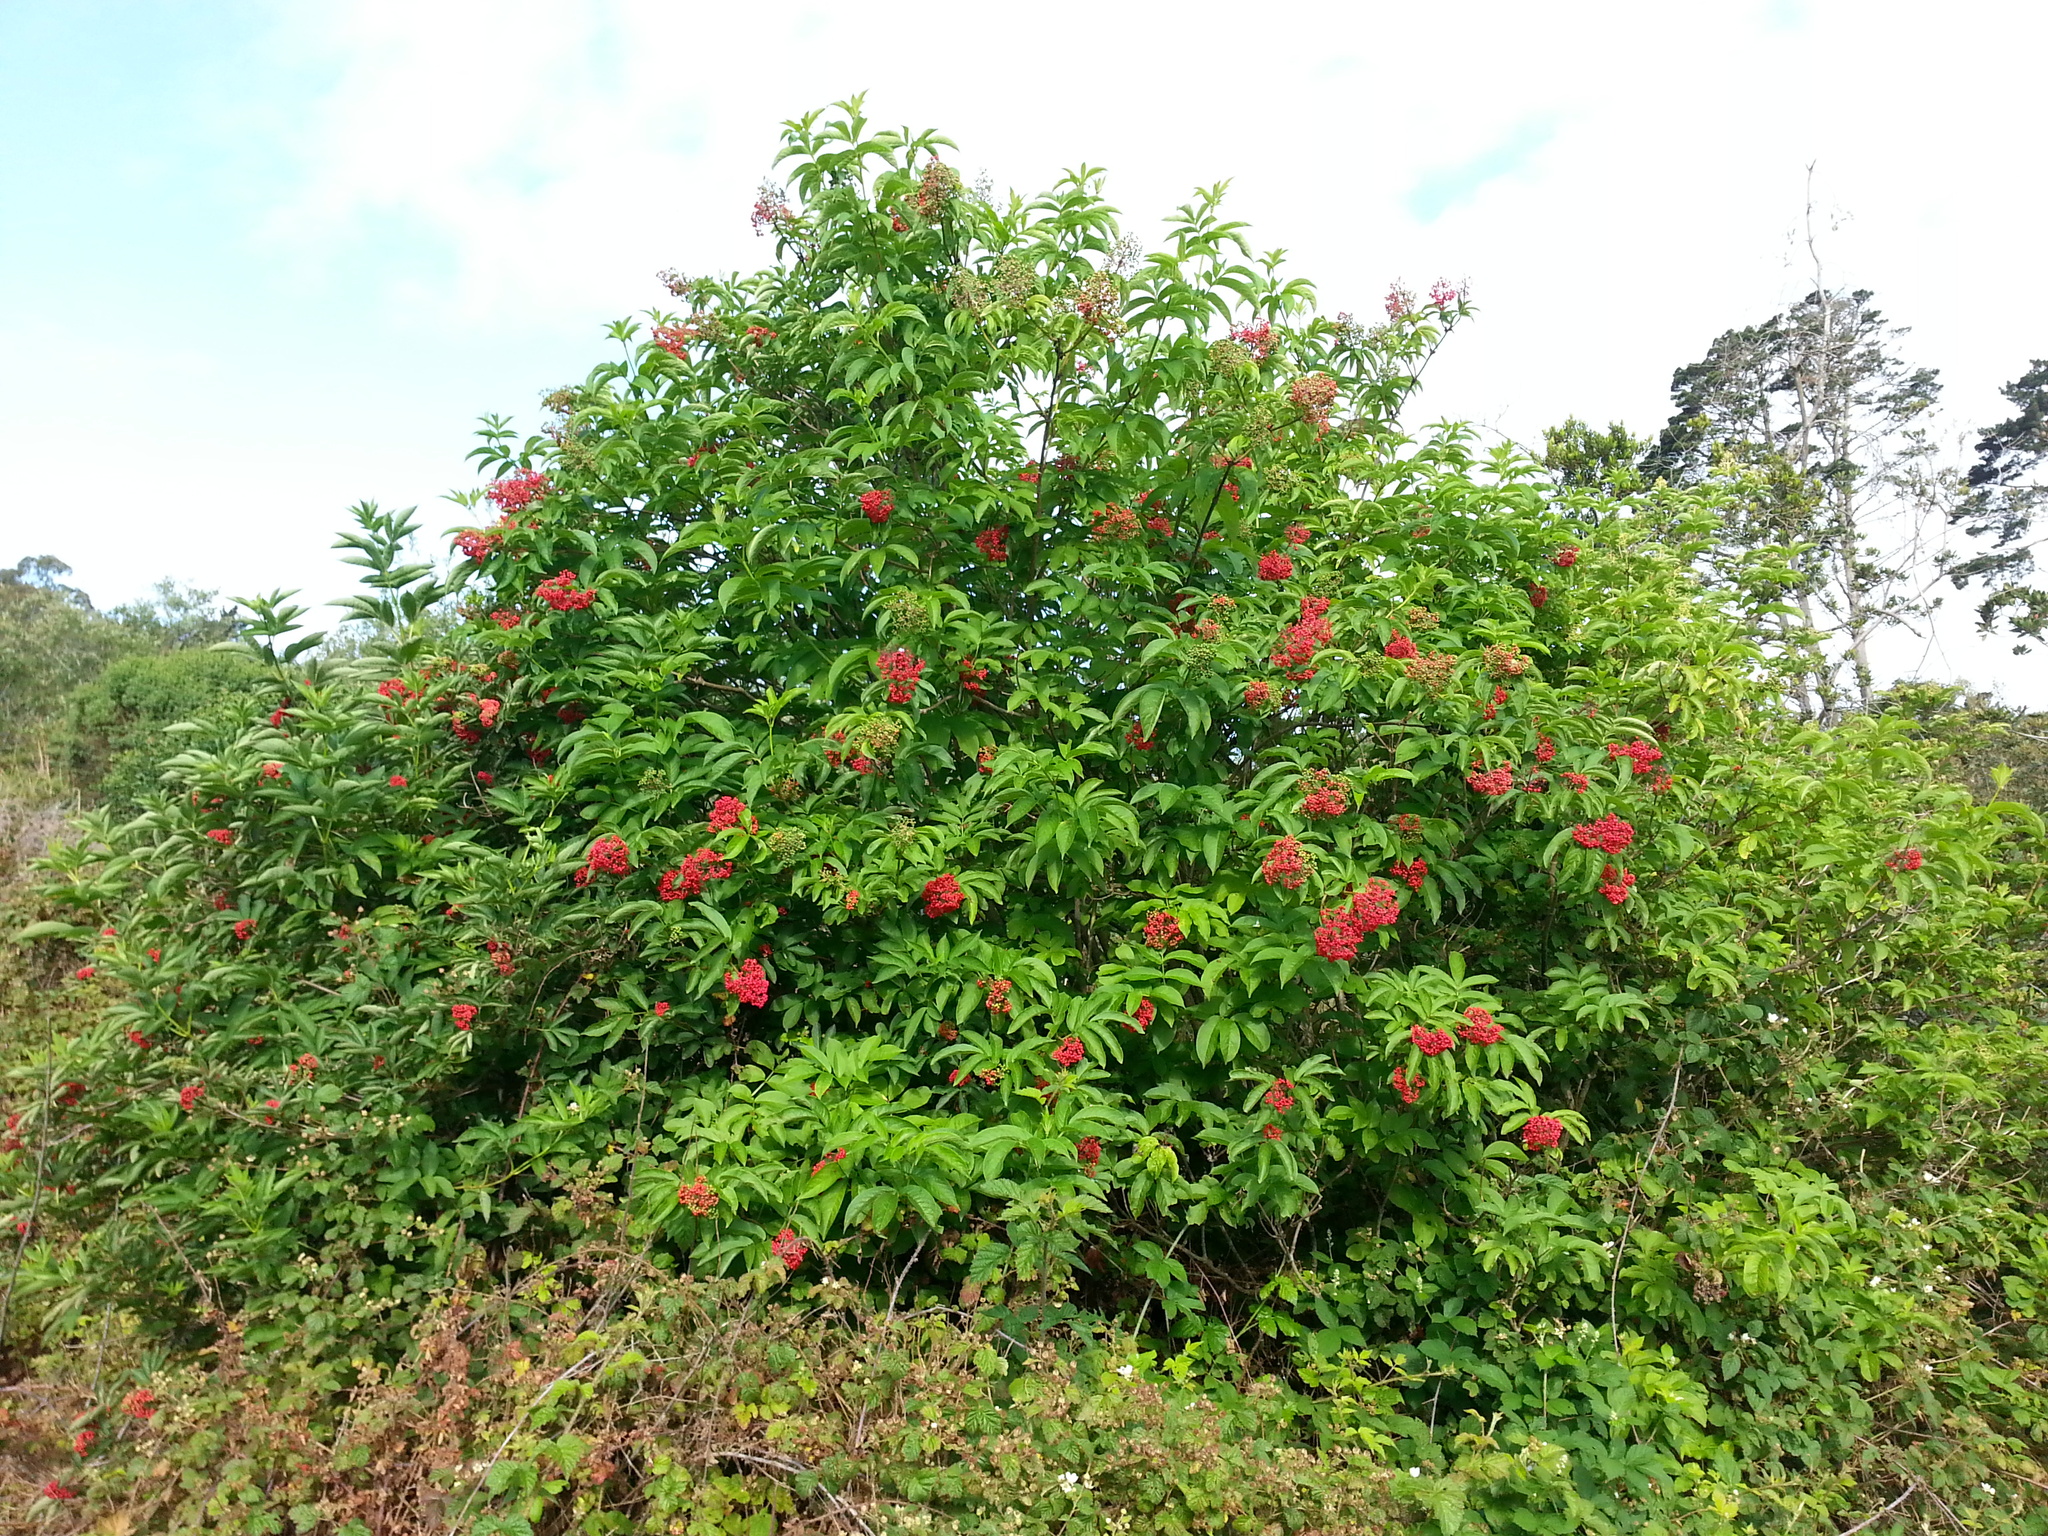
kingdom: Plantae
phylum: Tracheophyta
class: Magnoliopsida
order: Dipsacales
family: Viburnaceae
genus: Sambucus
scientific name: Sambucus racemosa
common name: Red-berried elder
